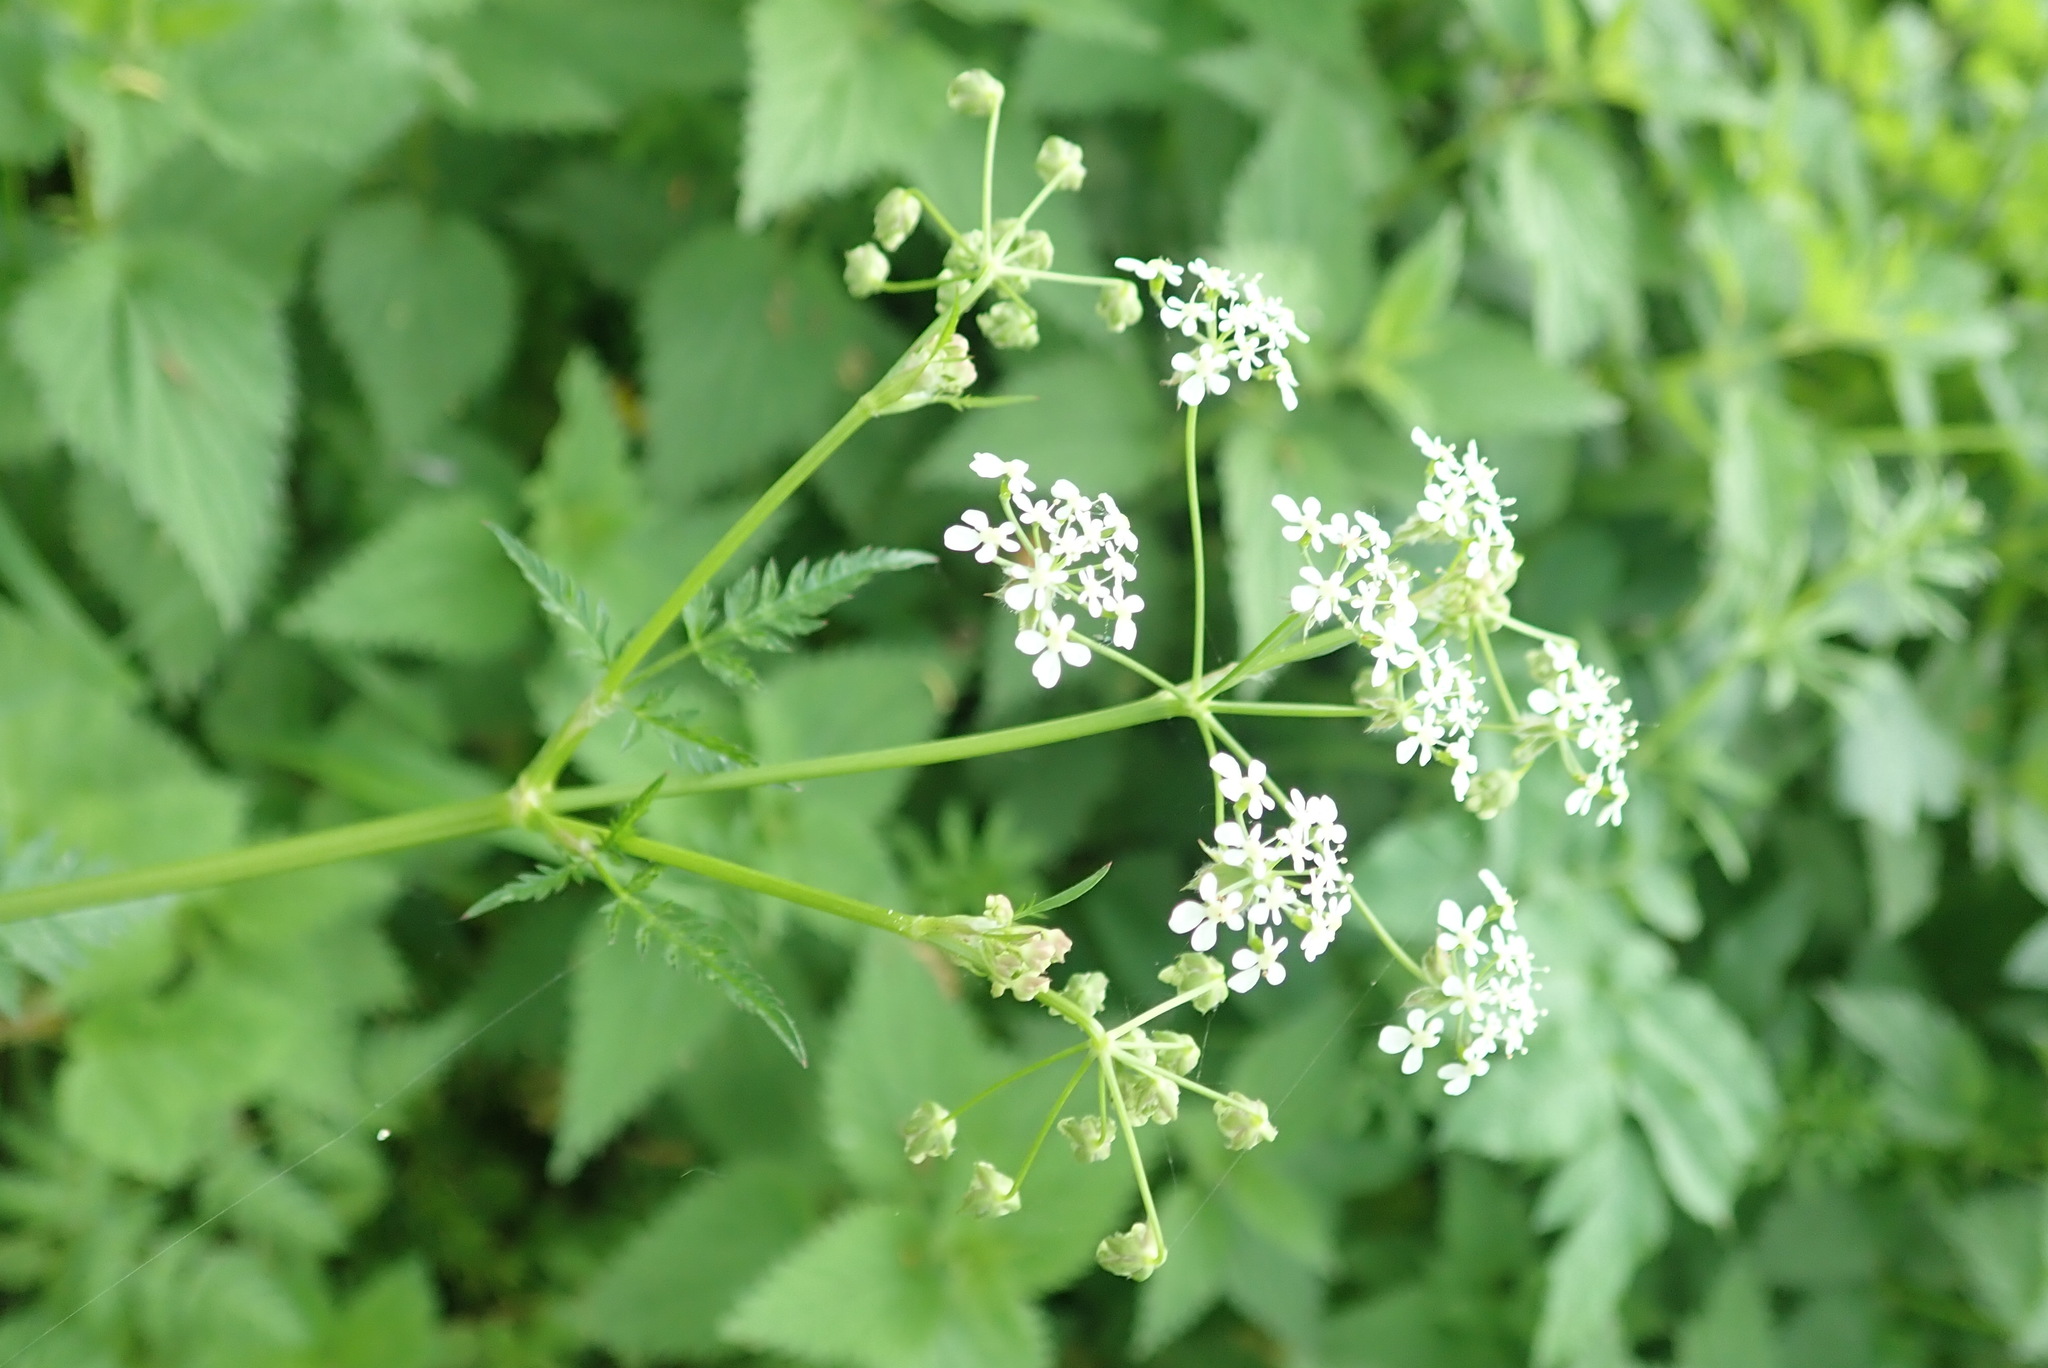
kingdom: Plantae
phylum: Tracheophyta
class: Magnoliopsida
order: Apiales
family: Apiaceae
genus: Anthriscus
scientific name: Anthriscus sylvestris
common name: Cow parsley
